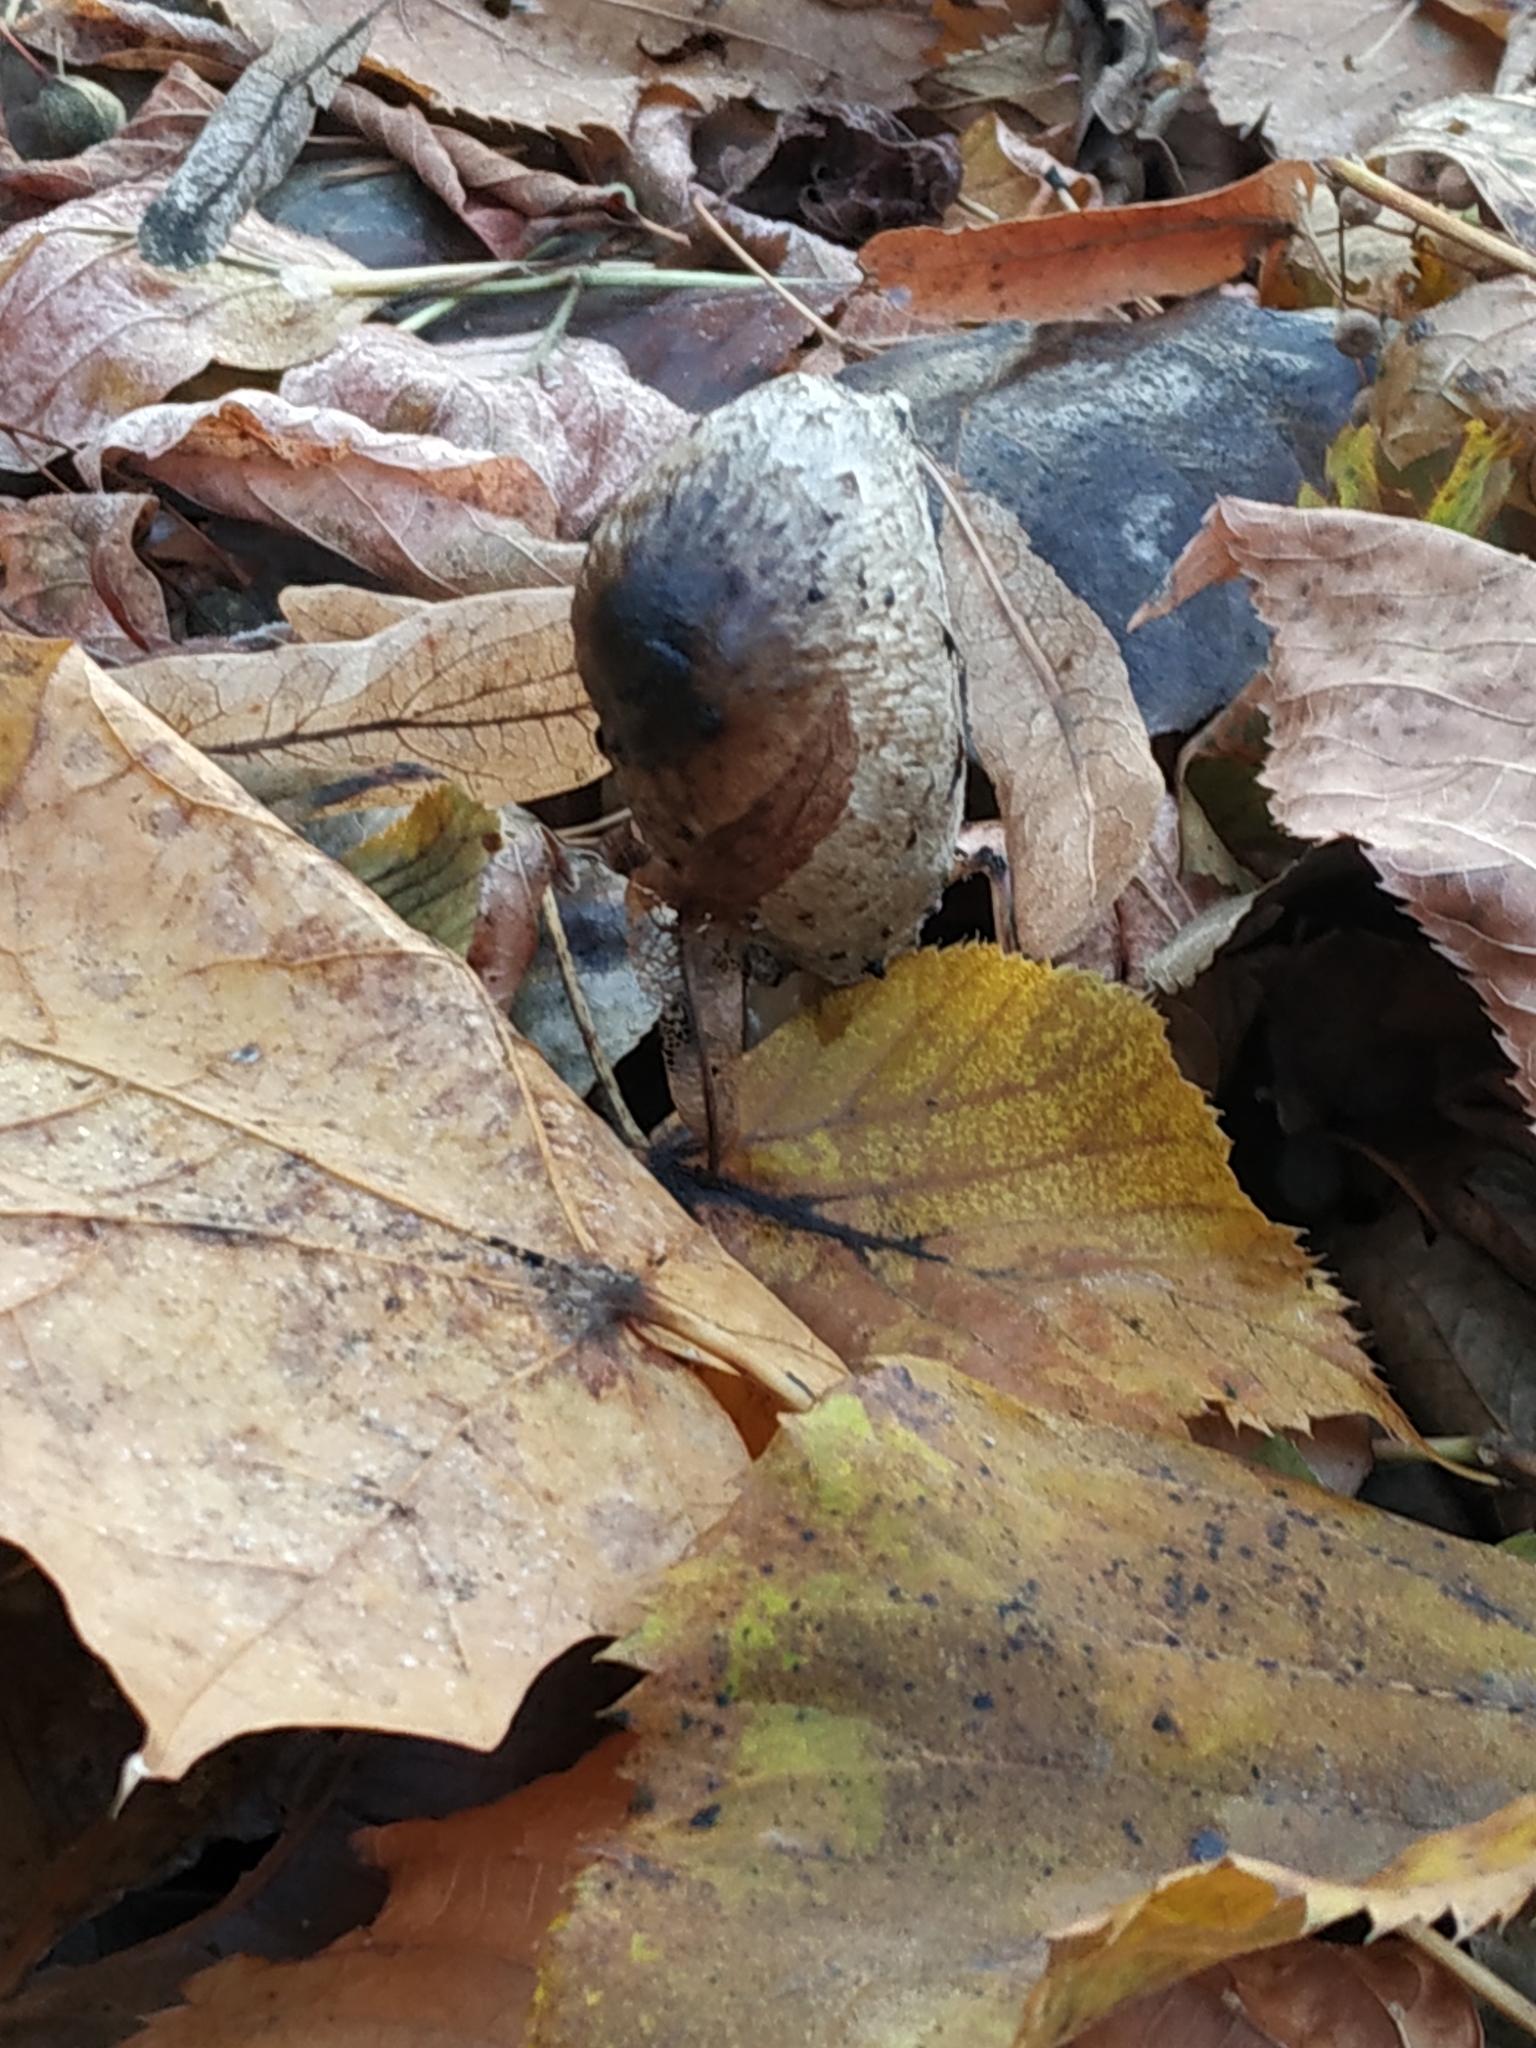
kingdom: Fungi
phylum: Basidiomycota
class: Agaricomycetes
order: Agaricales
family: Agaricaceae
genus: Coprinus
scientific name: Coprinus comatus
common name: Lawyer's wig
